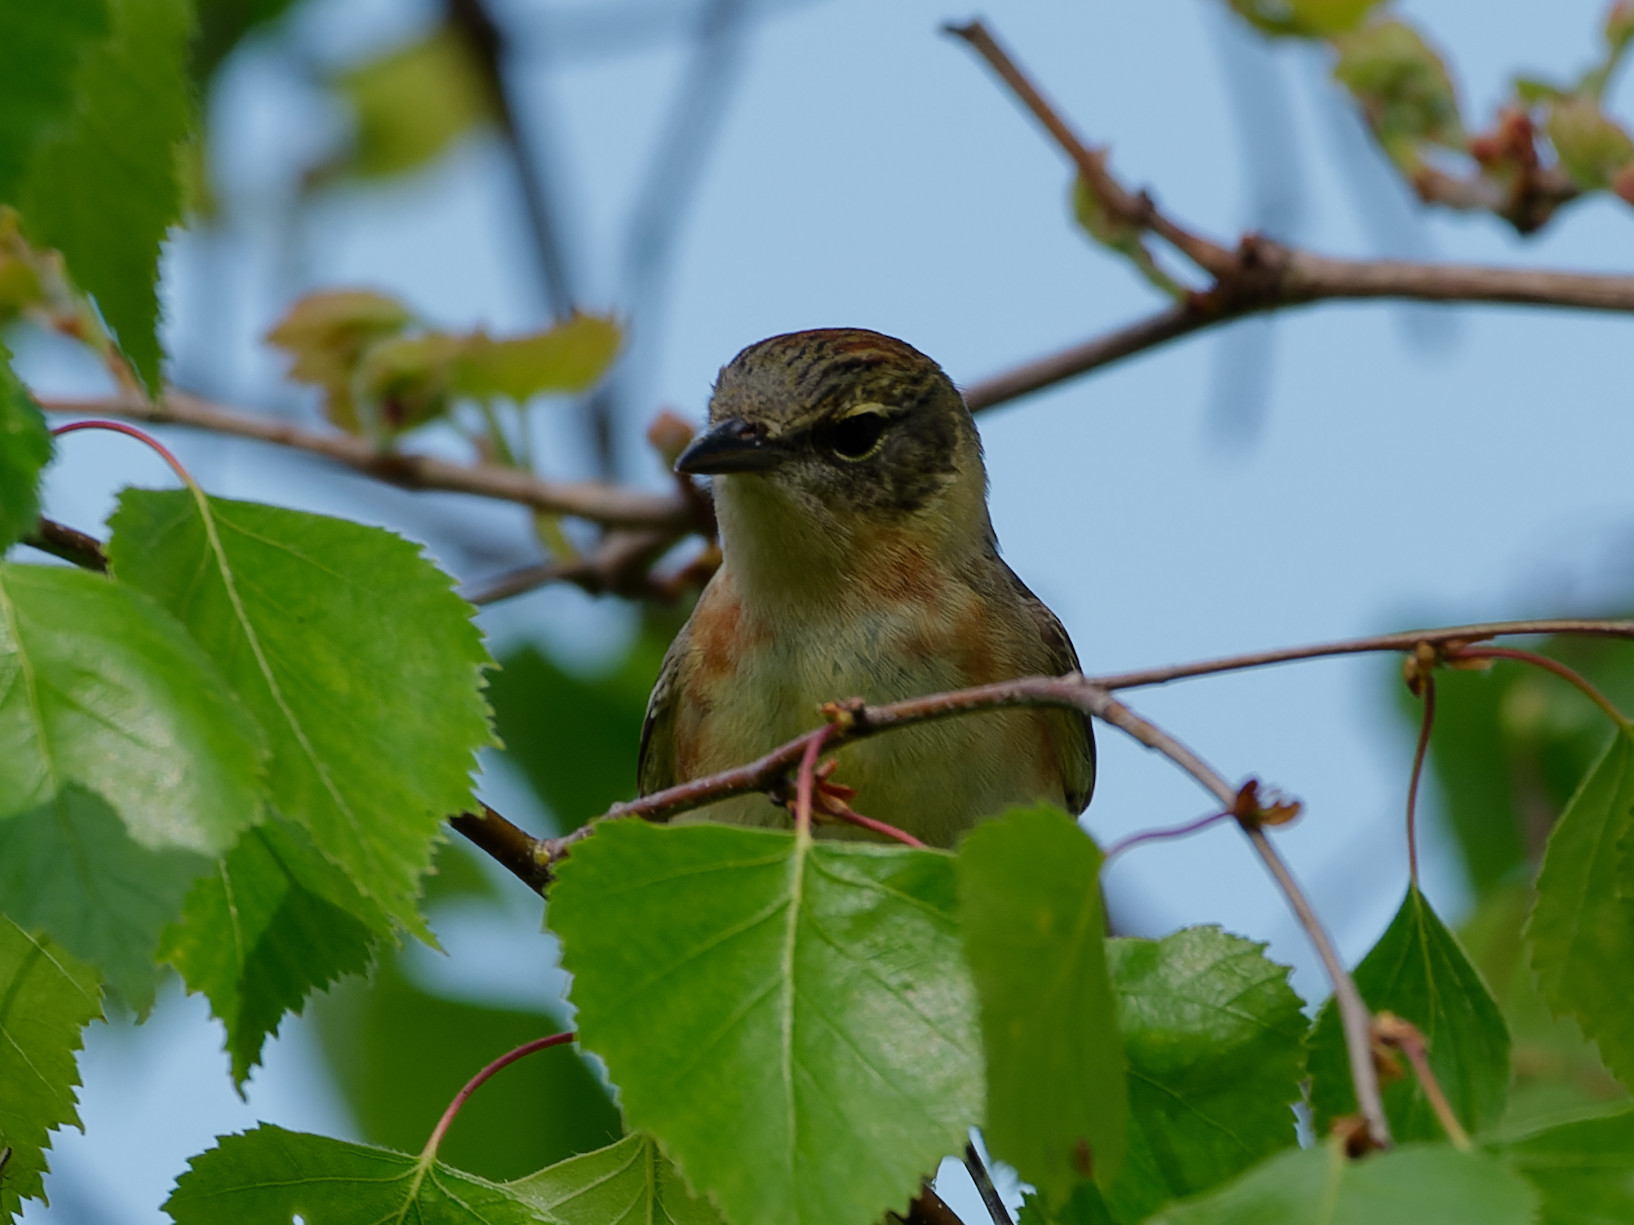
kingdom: Animalia
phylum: Chordata
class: Aves
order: Passeriformes
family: Parulidae
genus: Setophaga
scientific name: Setophaga castanea
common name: Bay-breasted warbler
